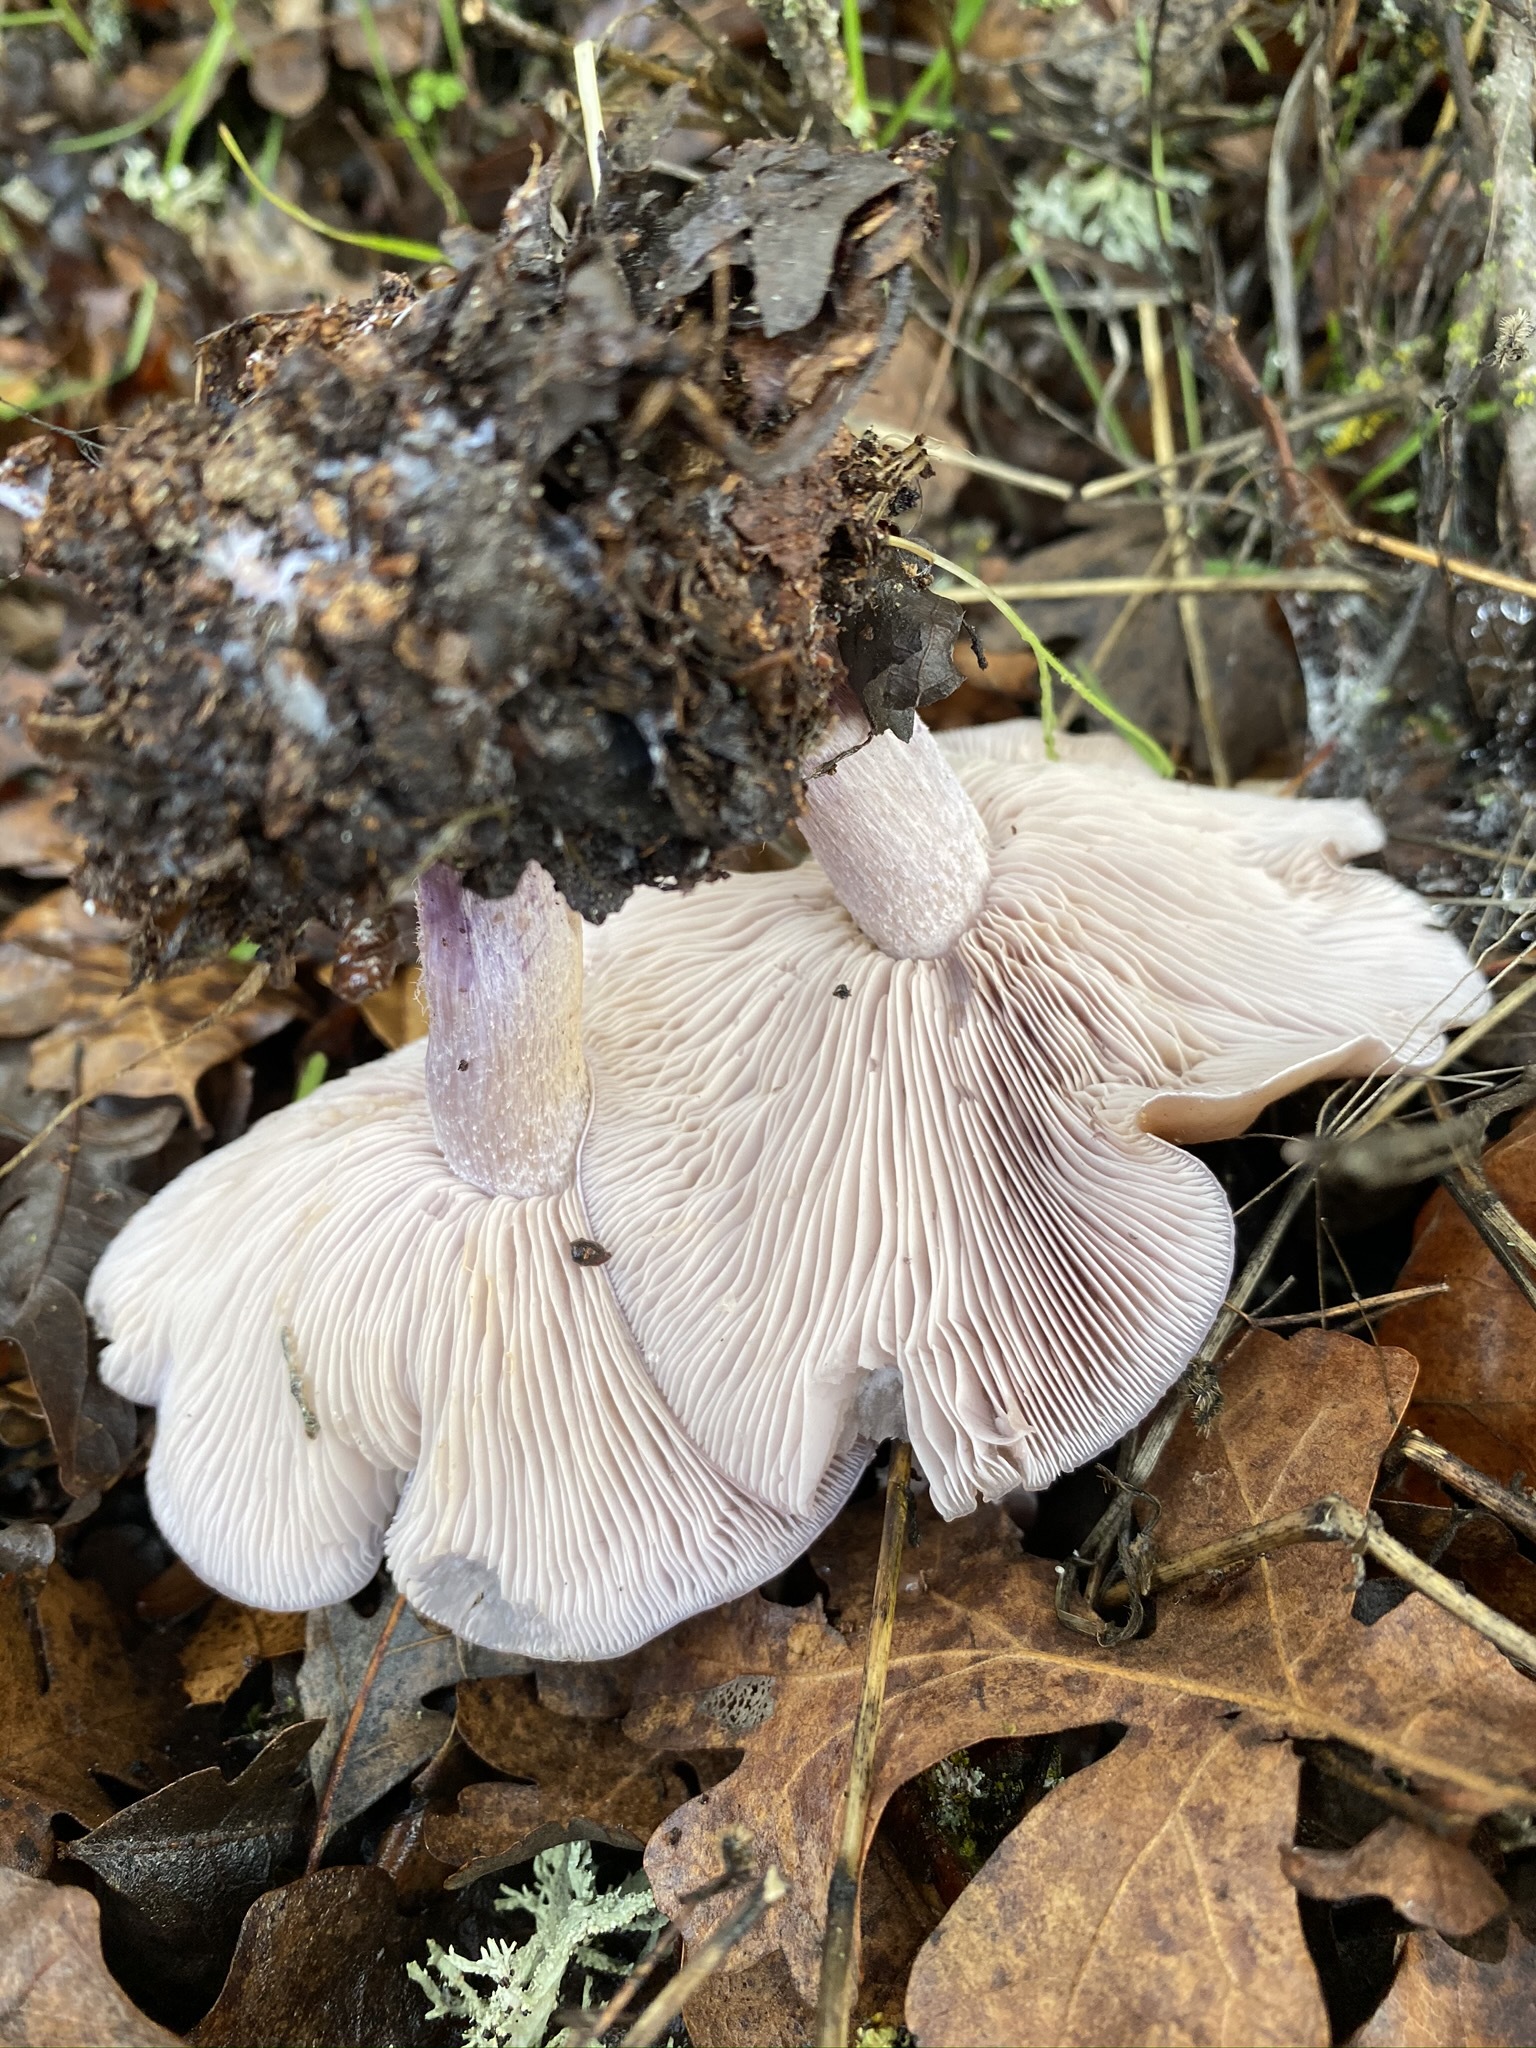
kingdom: Fungi
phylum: Basidiomycota
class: Agaricomycetes
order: Agaricales
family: Tricholomataceae
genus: Collybia
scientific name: Collybia
